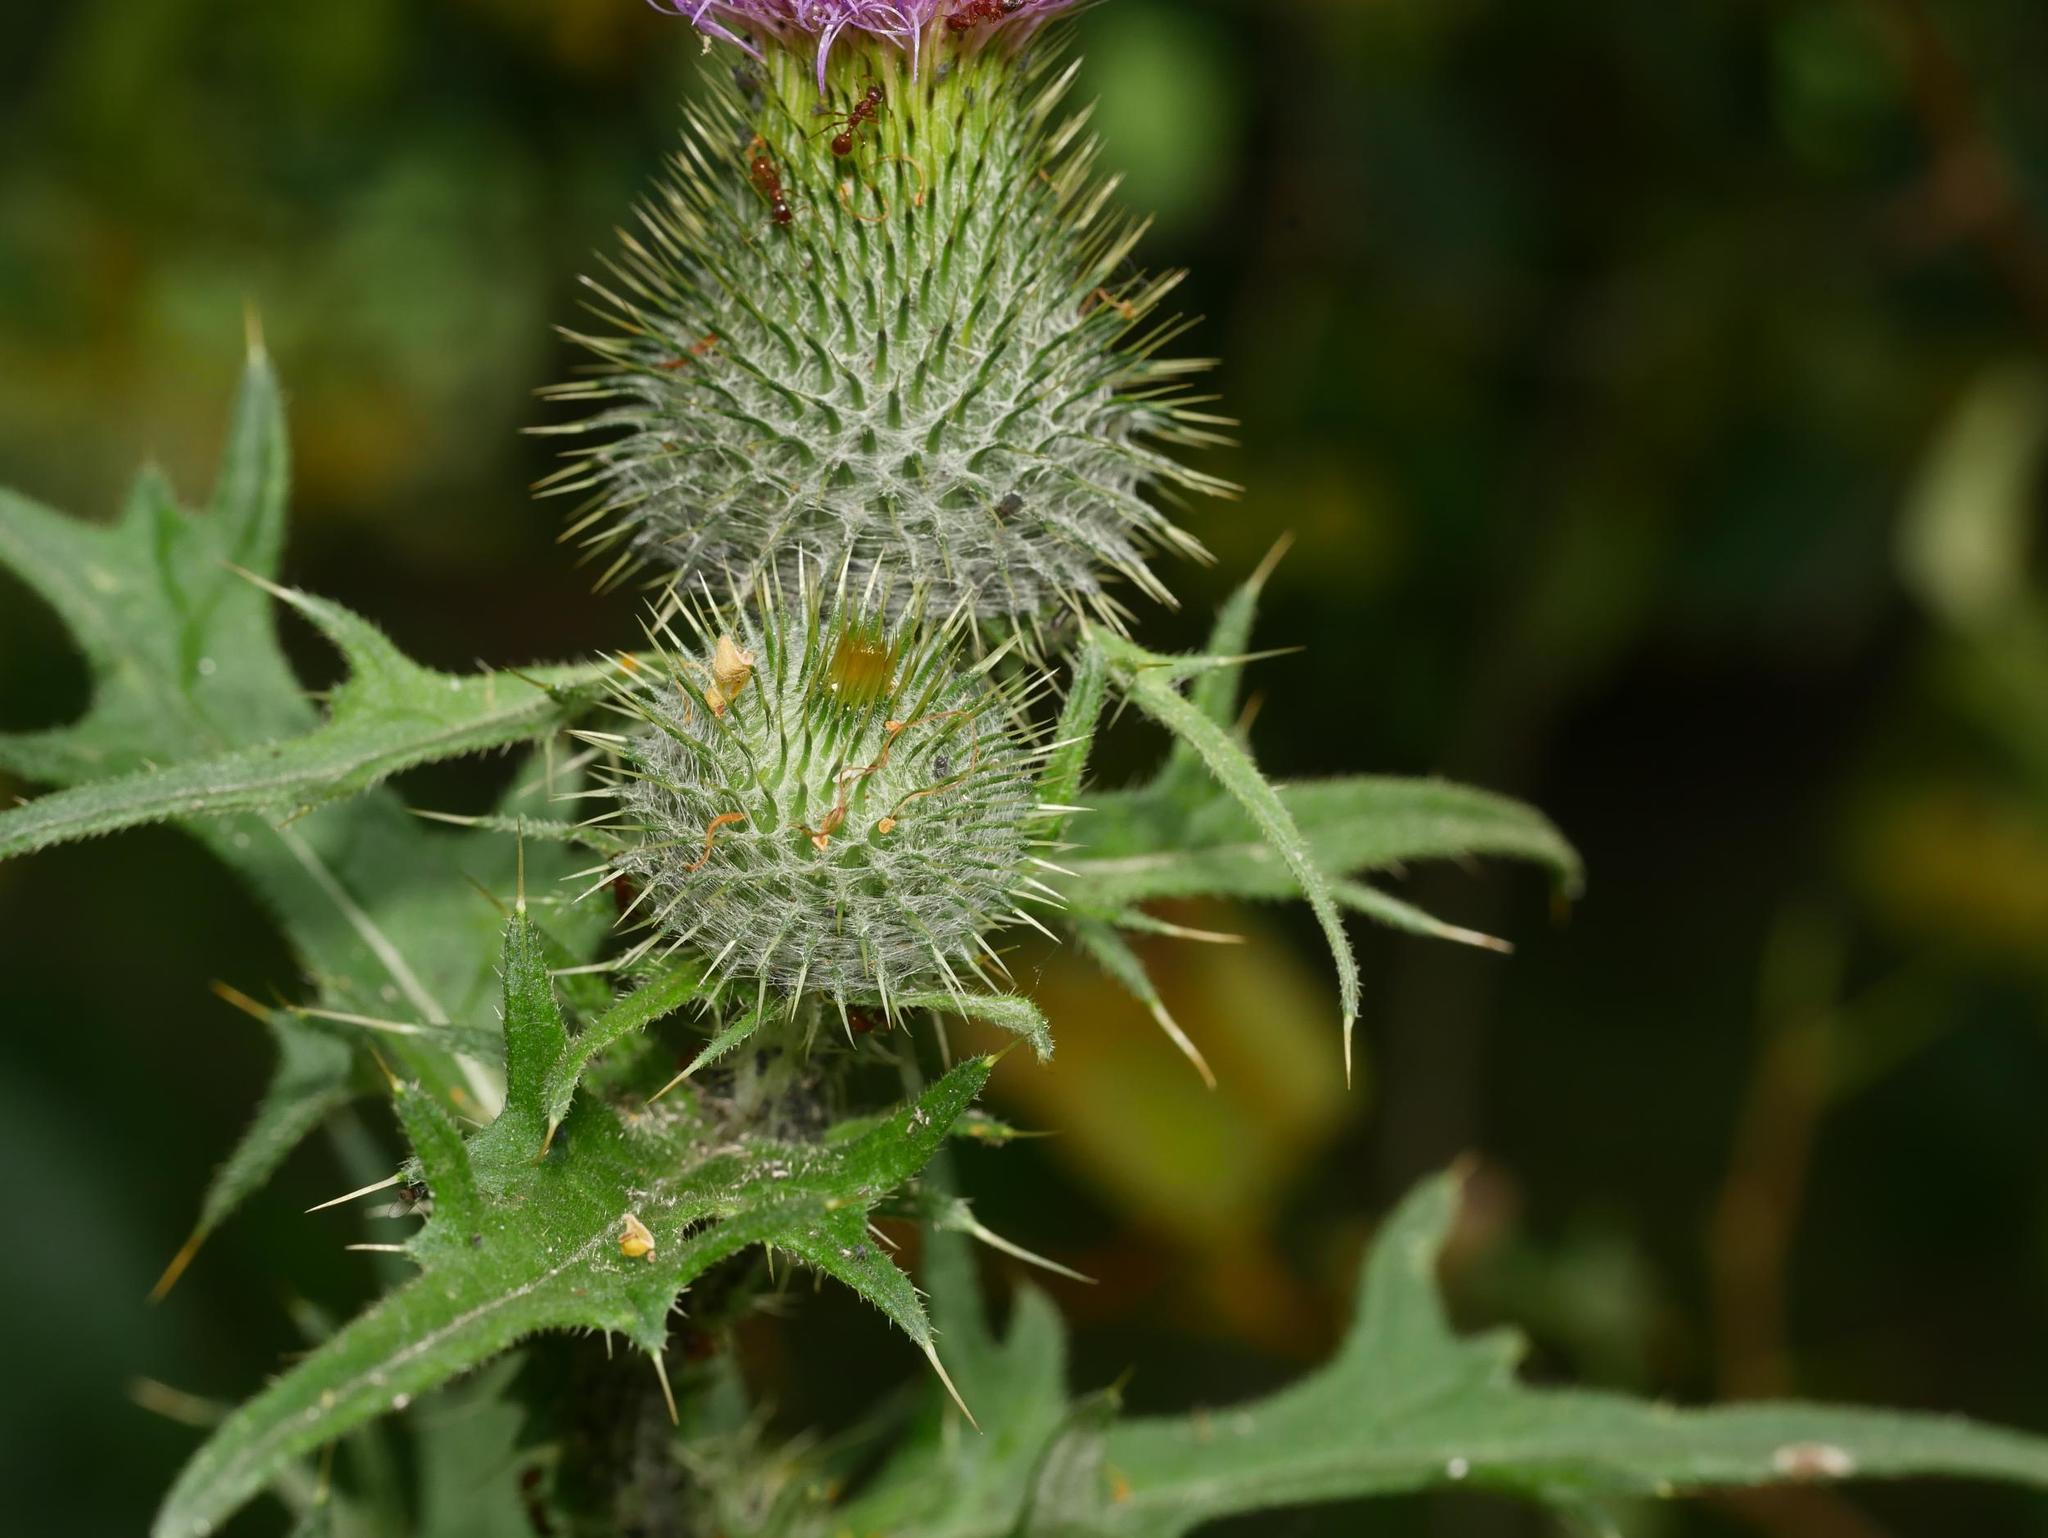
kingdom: Plantae
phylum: Tracheophyta
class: Magnoliopsida
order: Asterales
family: Asteraceae
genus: Cirsium
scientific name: Cirsium vulgare
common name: Bull thistle
